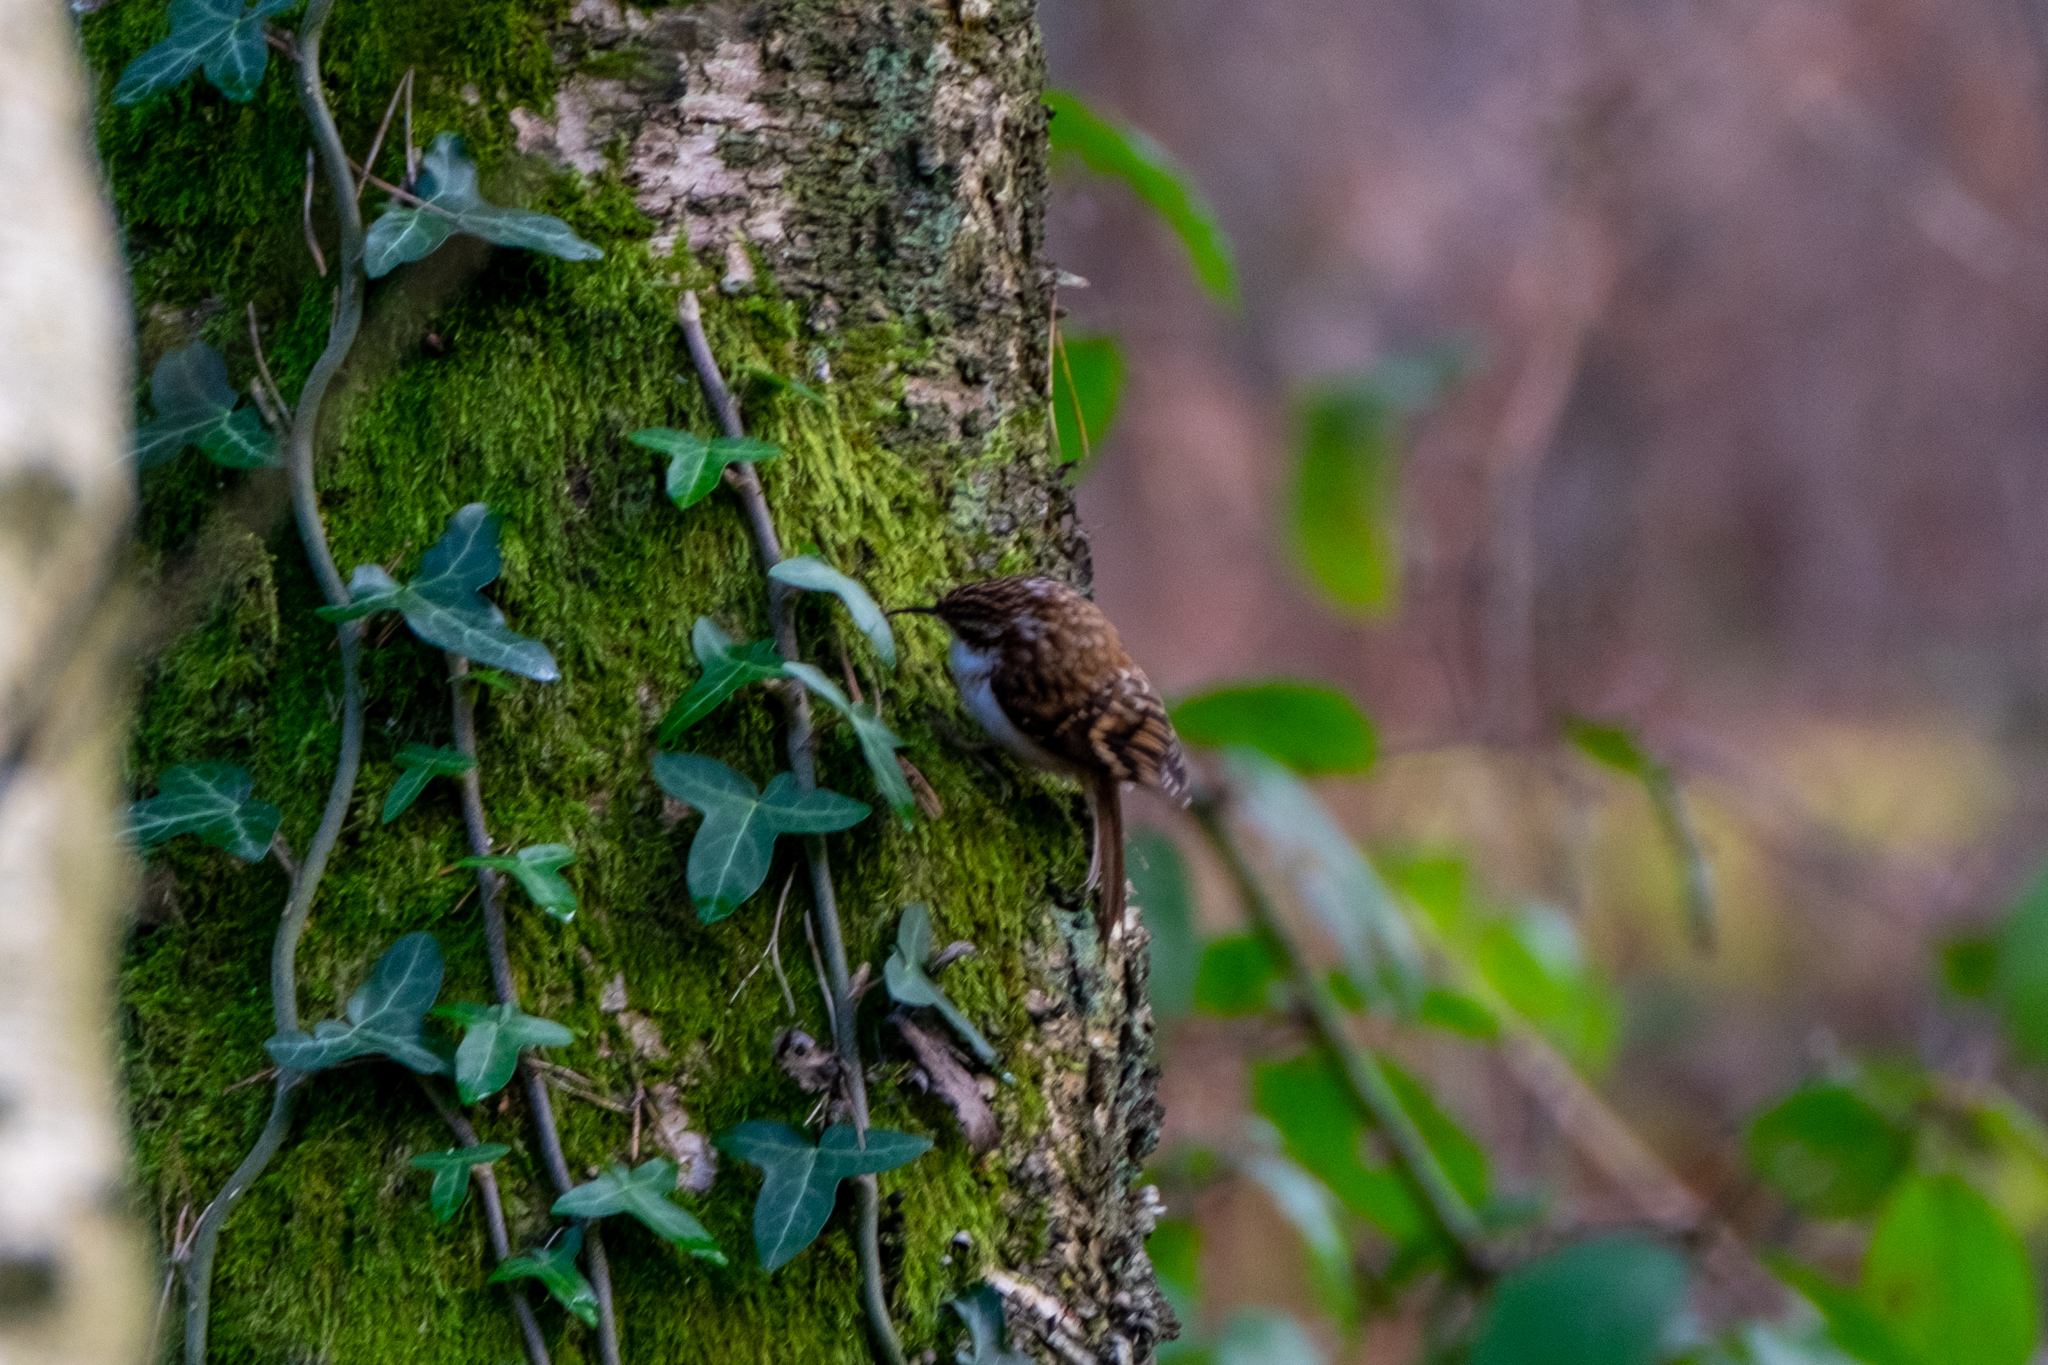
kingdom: Animalia
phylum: Chordata
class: Aves
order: Passeriformes
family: Certhiidae
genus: Certhia
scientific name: Certhia familiaris
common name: Eurasian treecreeper
